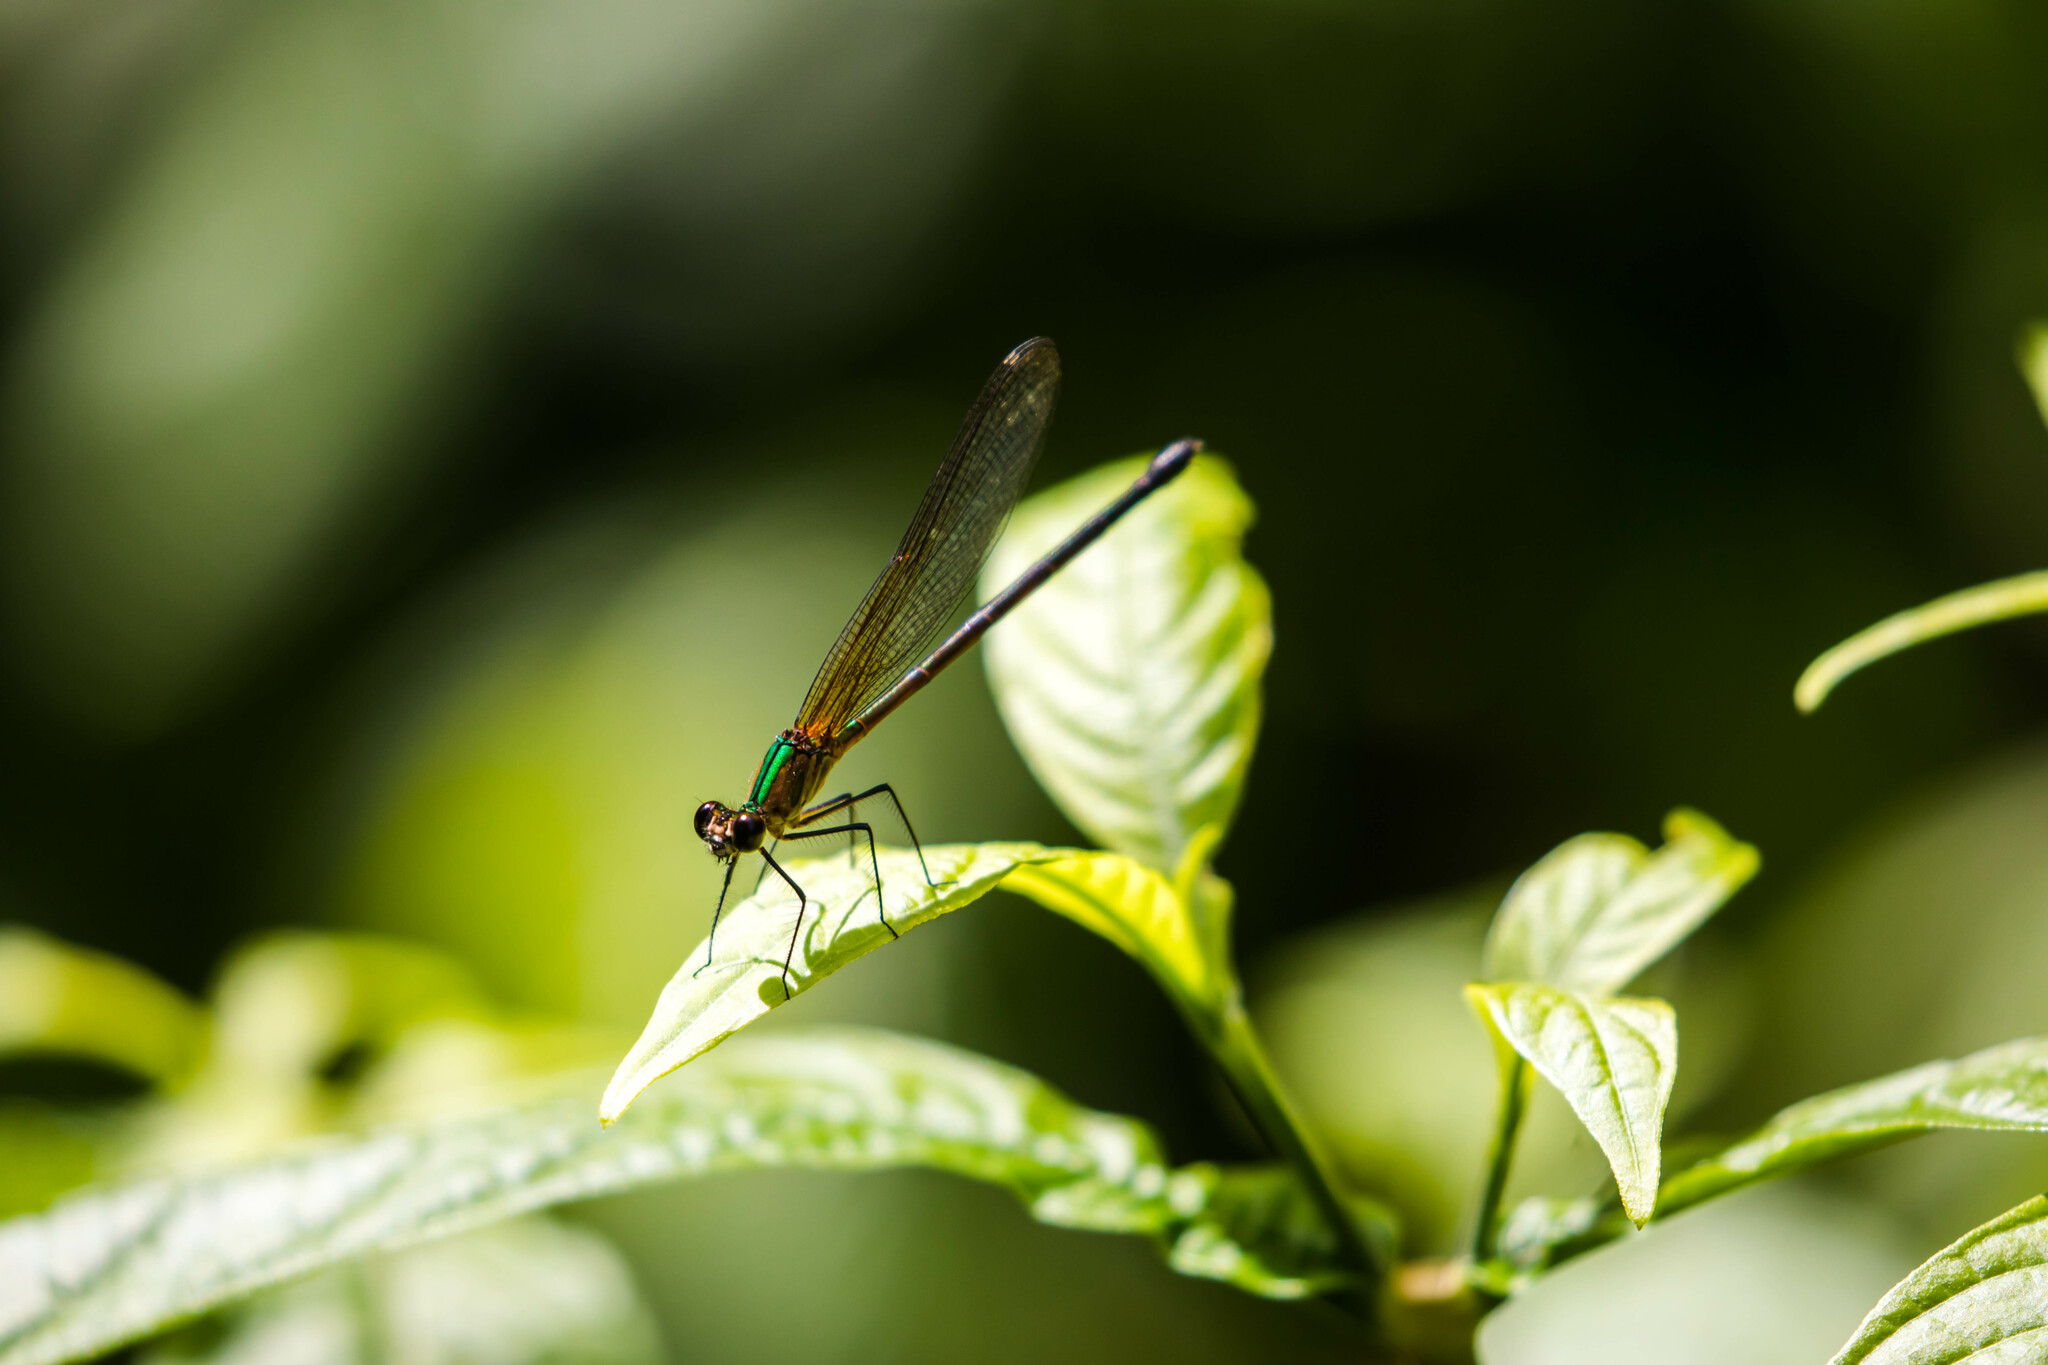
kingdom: Animalia
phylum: Arthropoda
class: Insecta
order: Odonata
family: Calopterygidae
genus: Hetaerina
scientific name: Hetaerina occisa
